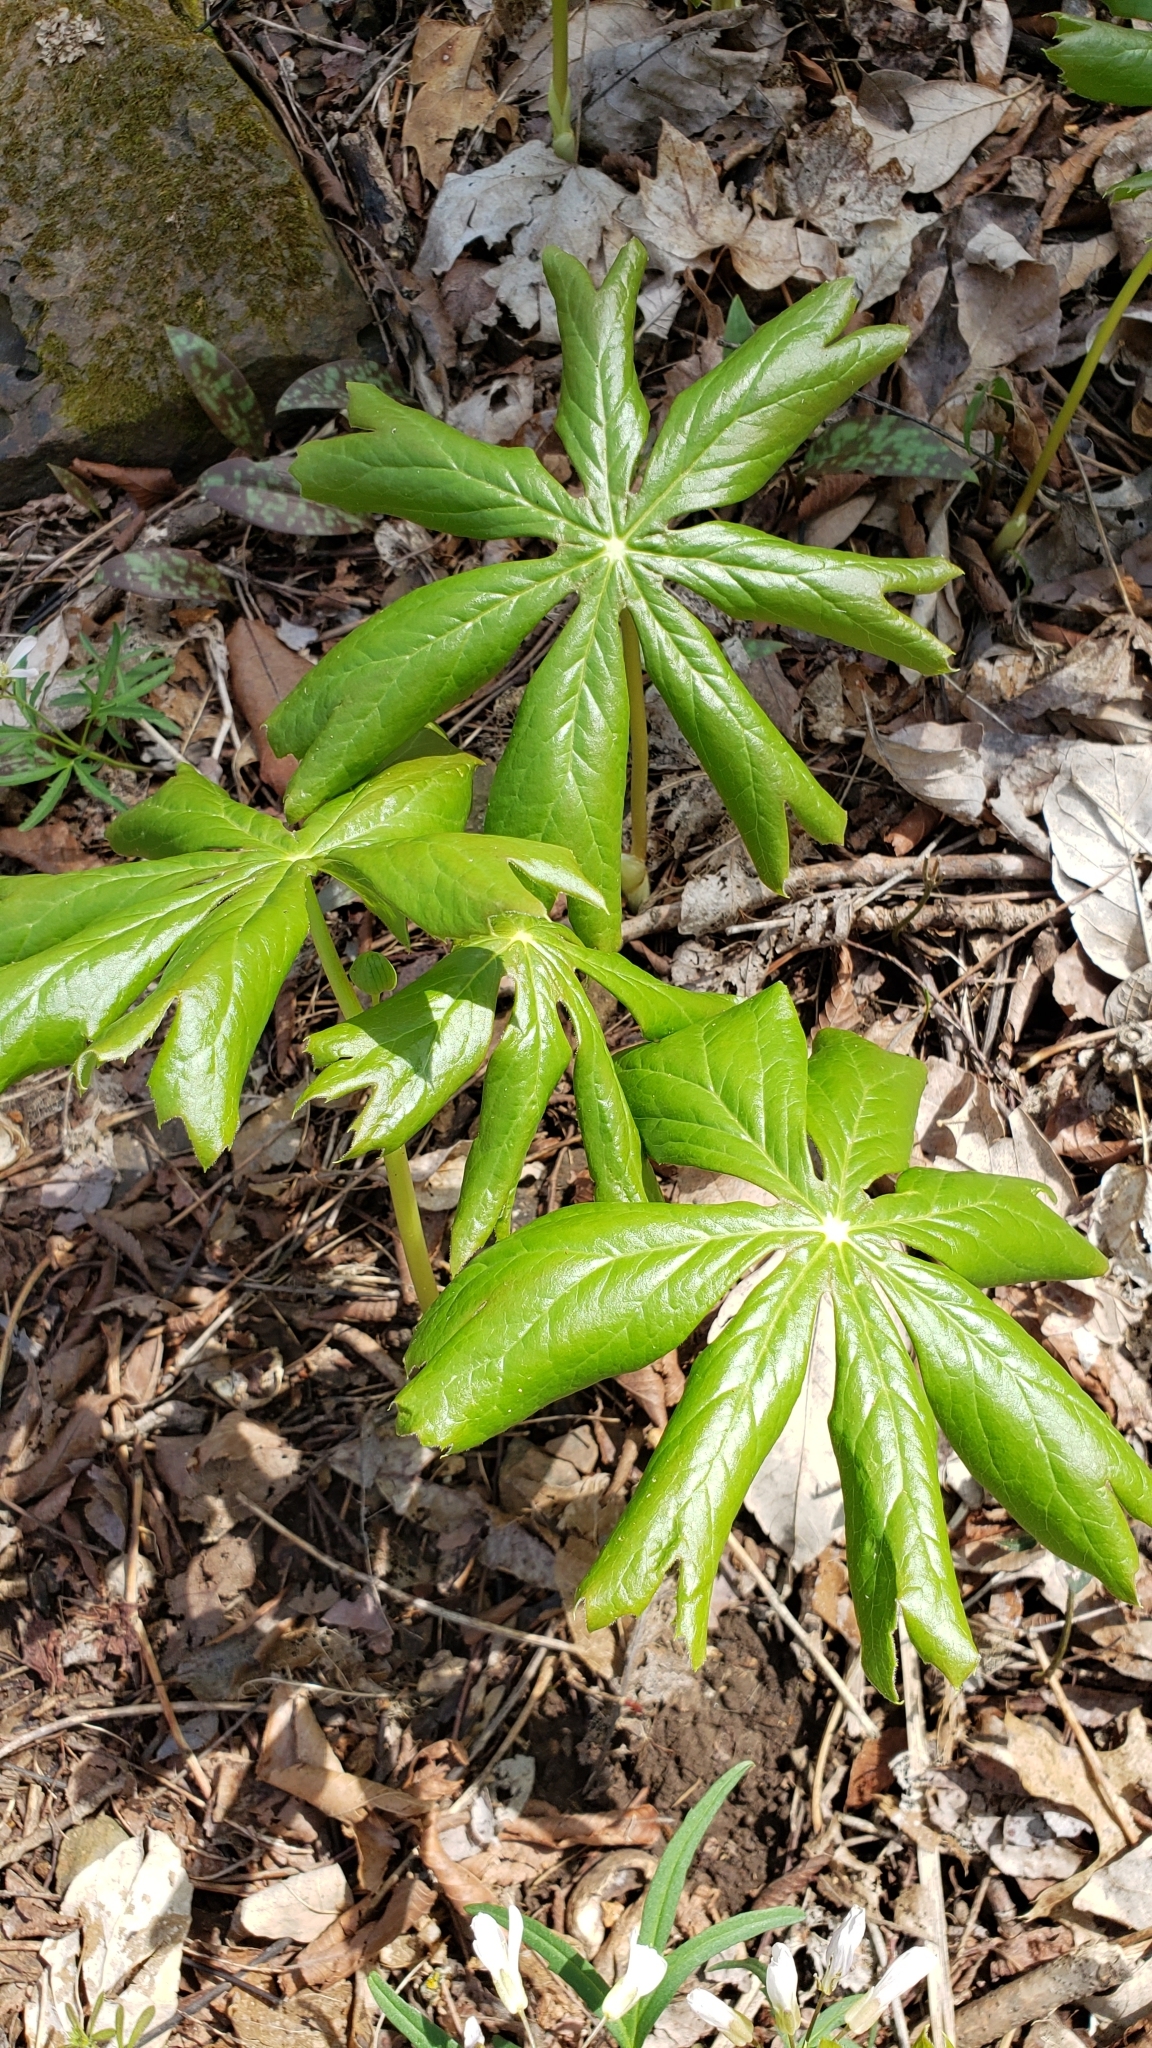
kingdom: Plantae
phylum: Tracheophyta
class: Magnoliopsida
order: Ranunculales
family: Berberidaceae
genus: Podophyllum
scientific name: Podophyllum peltatum
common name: Wild mandrake
